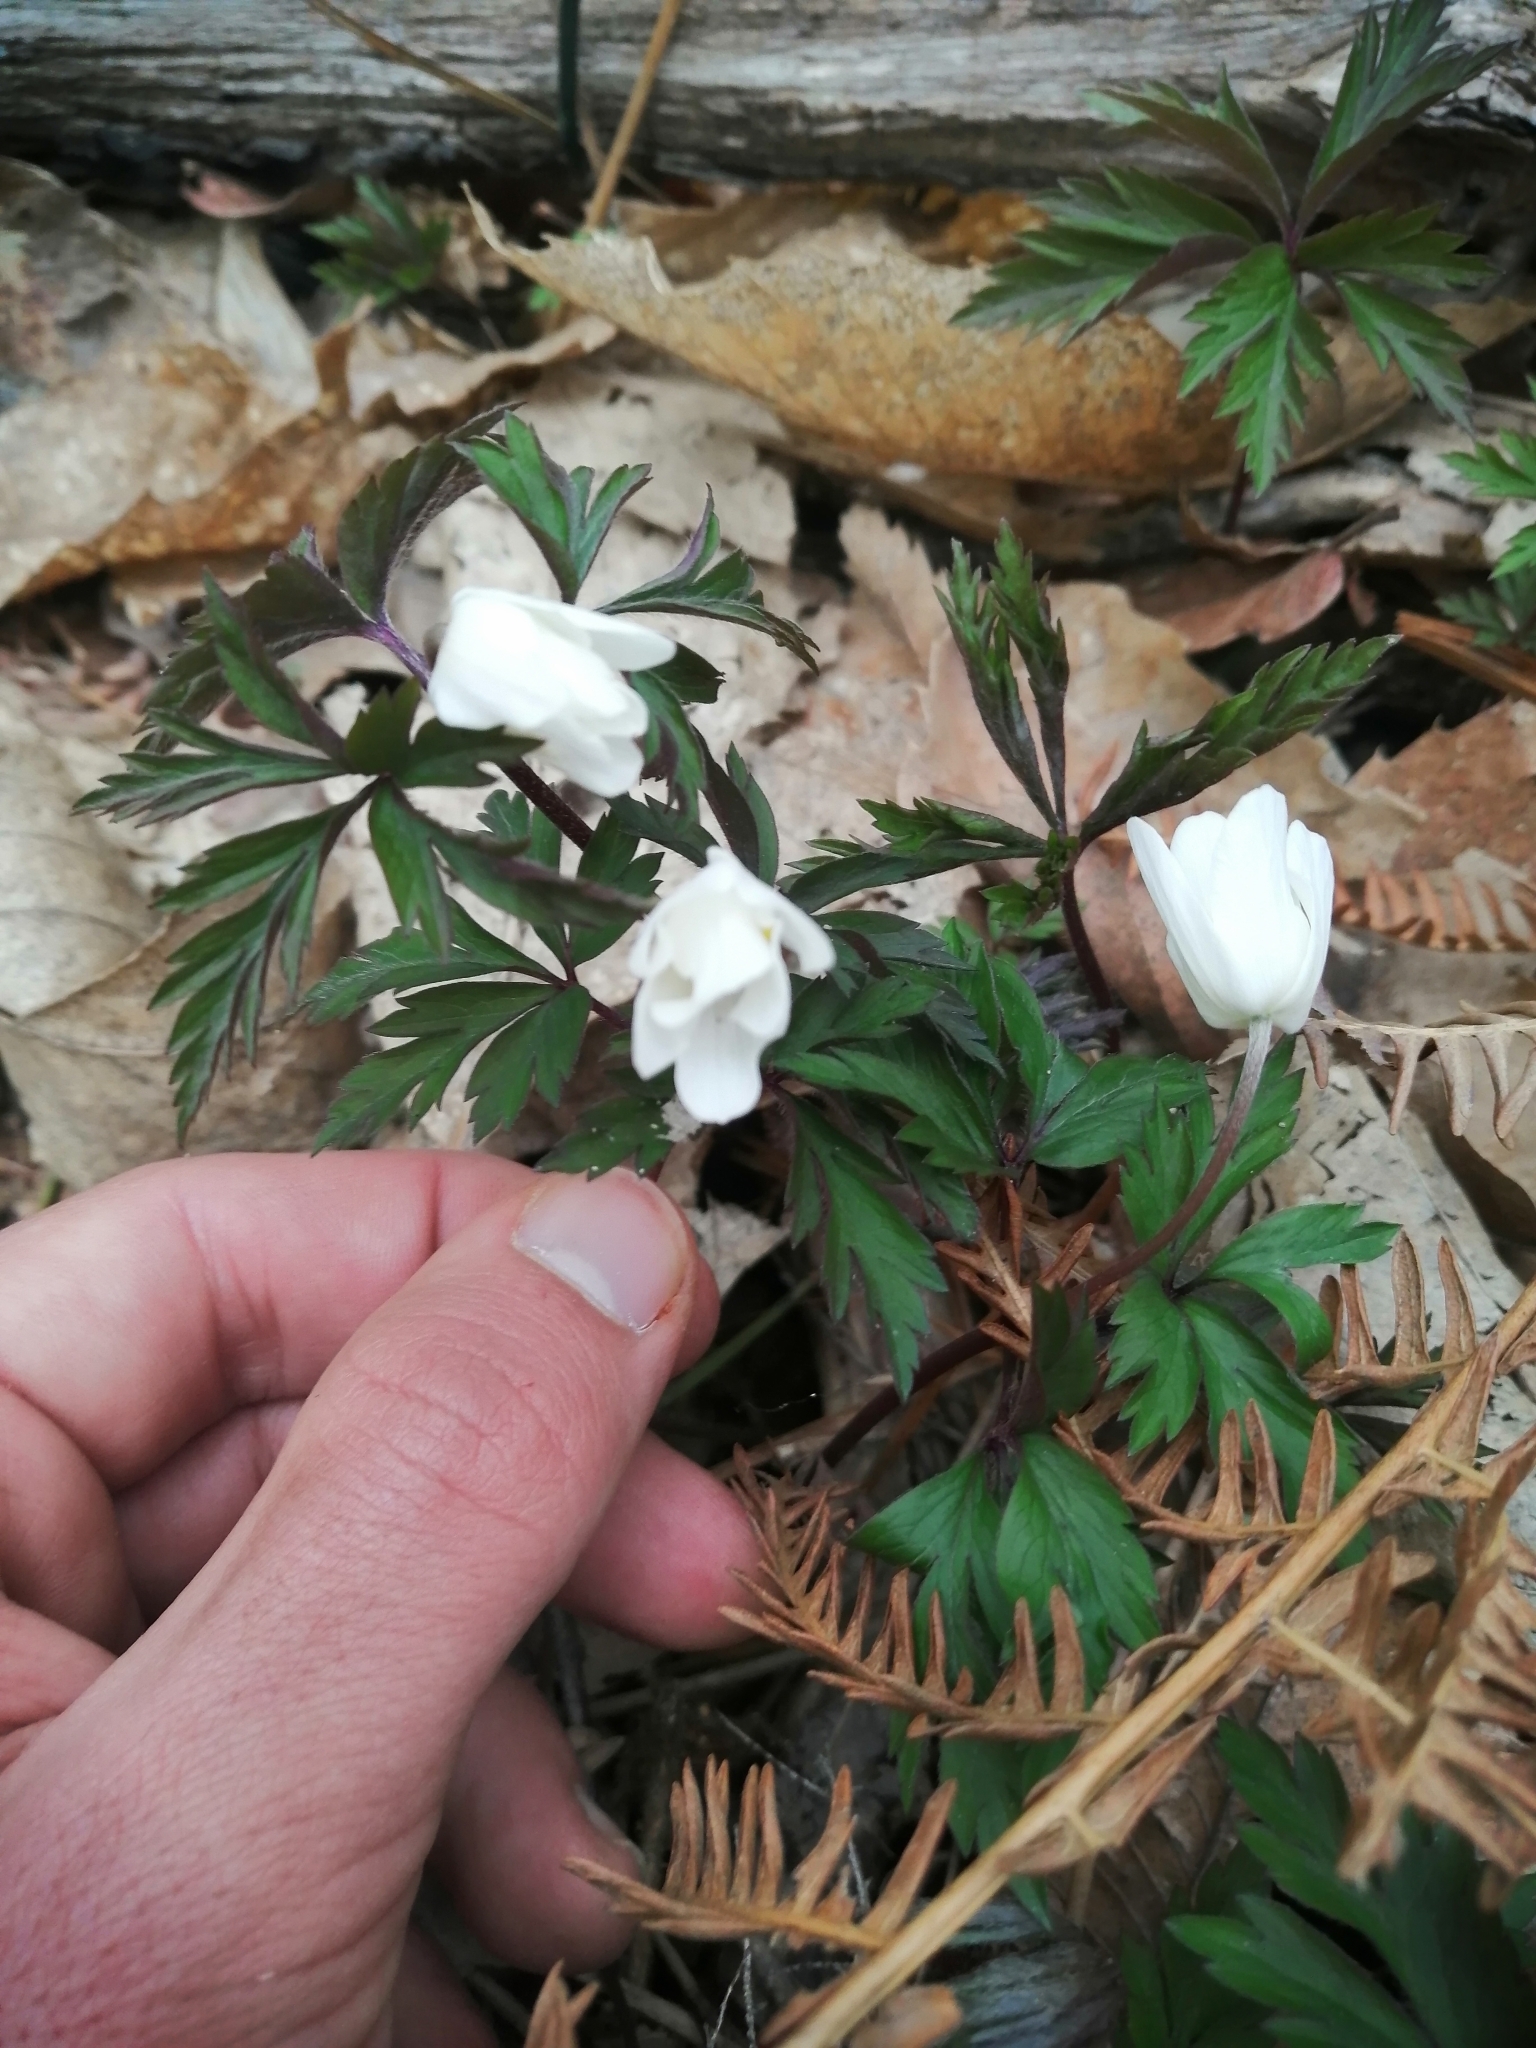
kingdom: Plantae
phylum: Tracheophyta
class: Magnoliopsida
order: Ranunculales
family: Ranunculaceae
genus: Anemone
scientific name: Anemone nemorosa
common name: Wood anemone
